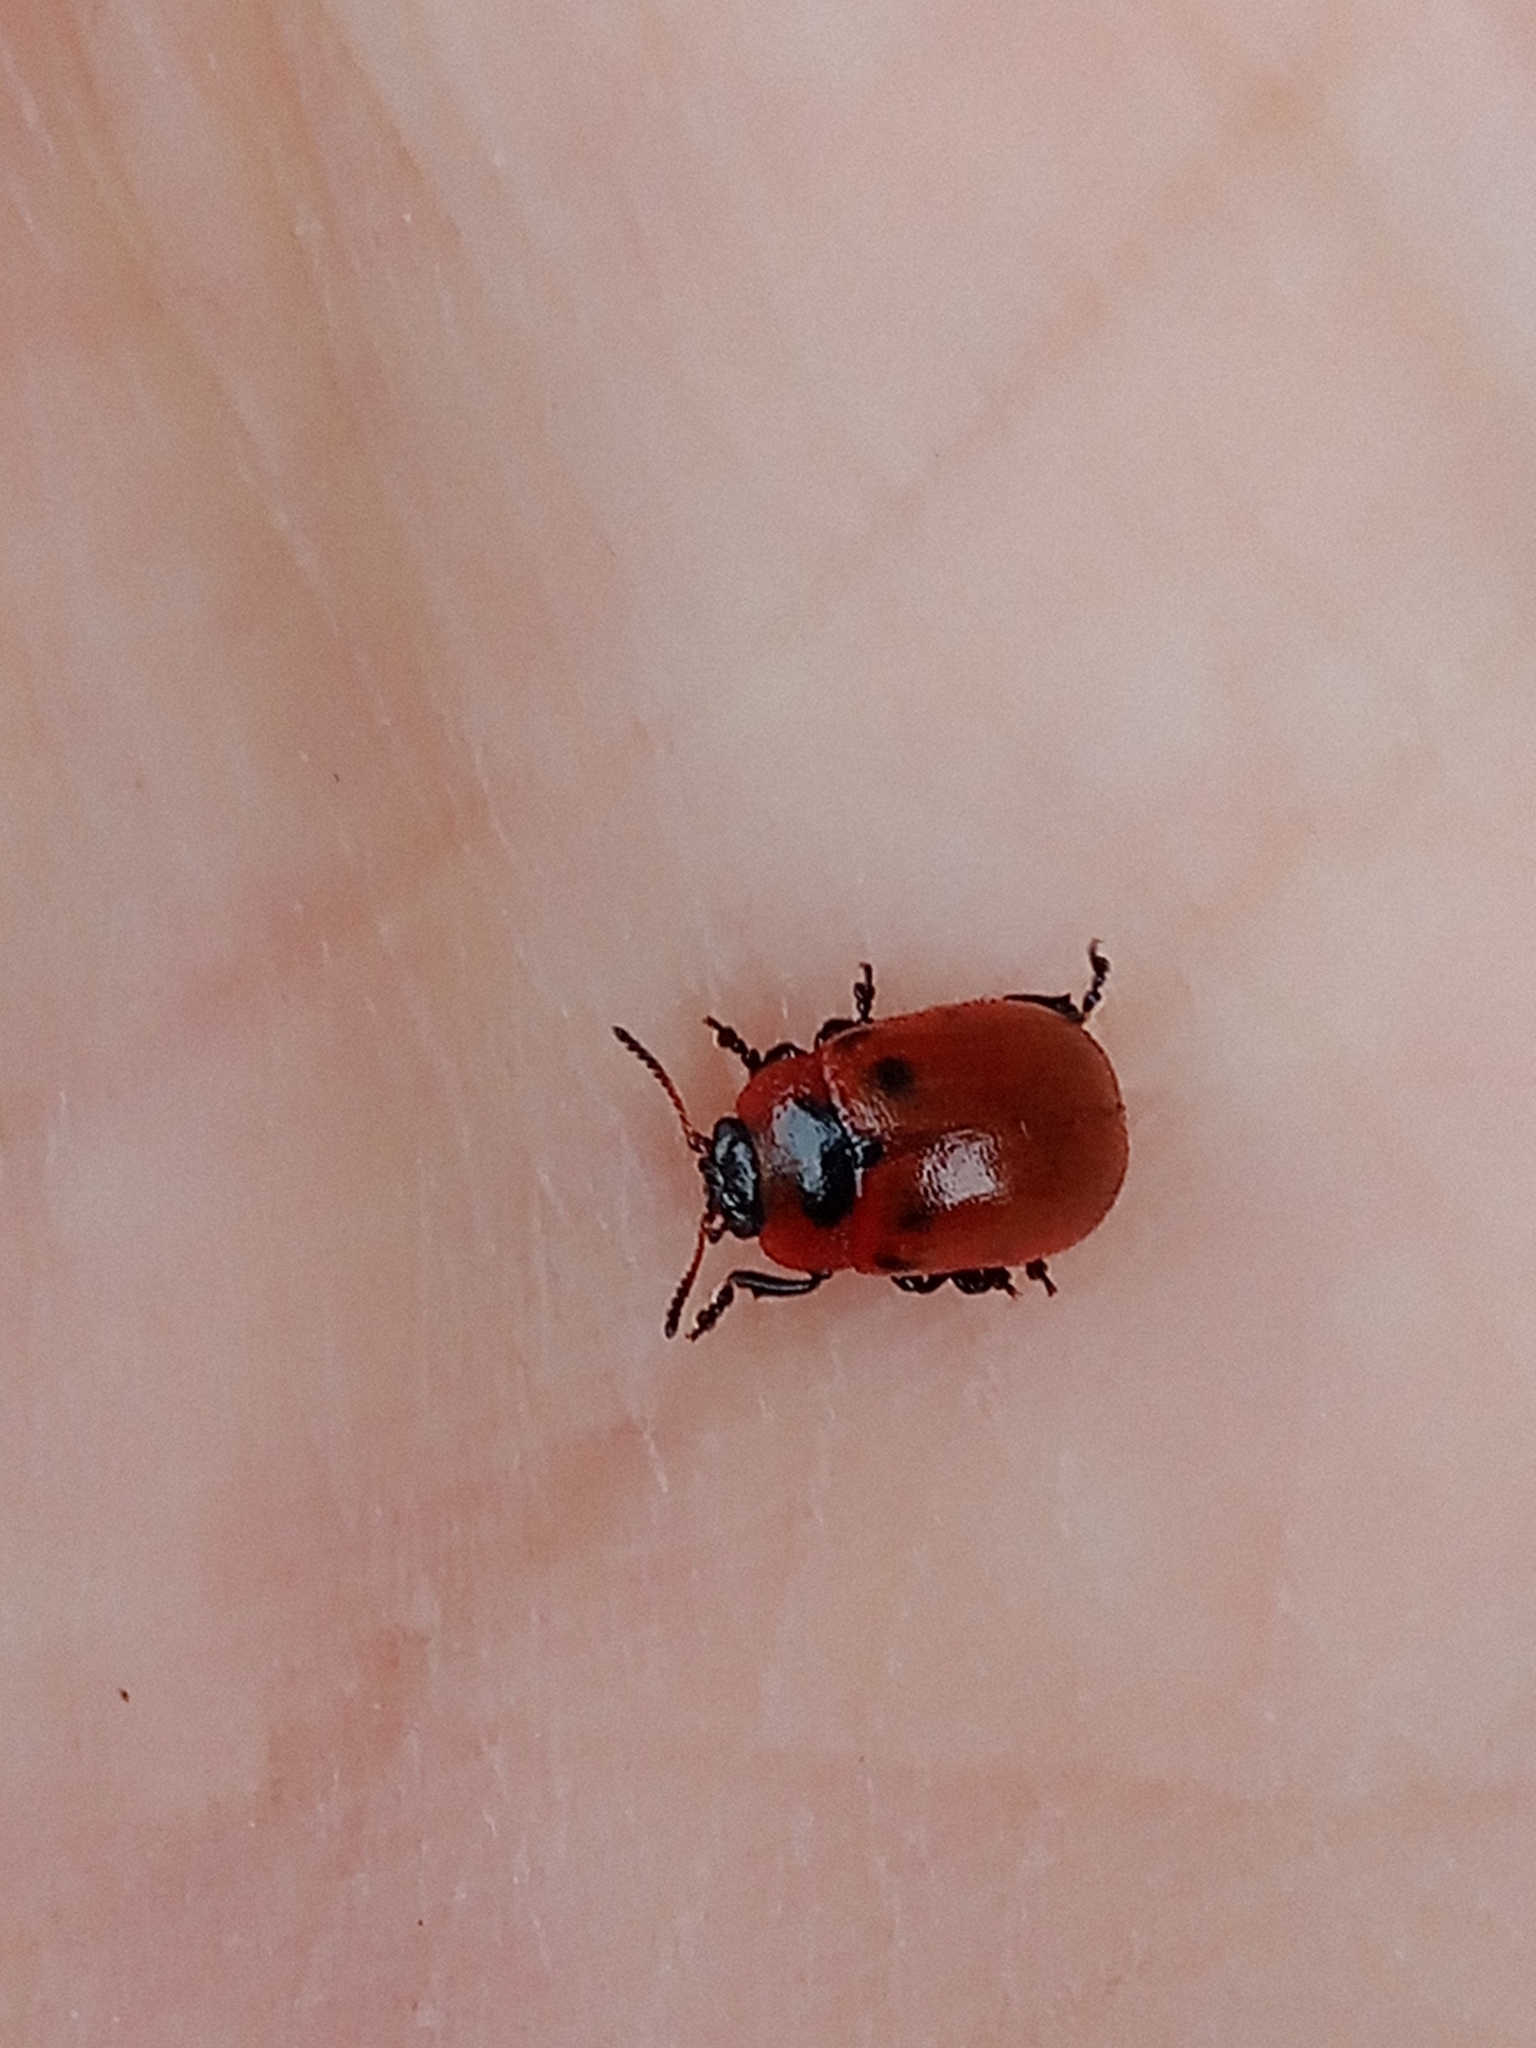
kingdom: Animalia
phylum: Arthropoda
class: Insecta
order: Coleoptera
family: Chrysomelidae
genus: Gonioctena
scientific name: Gonioctena viminalis
